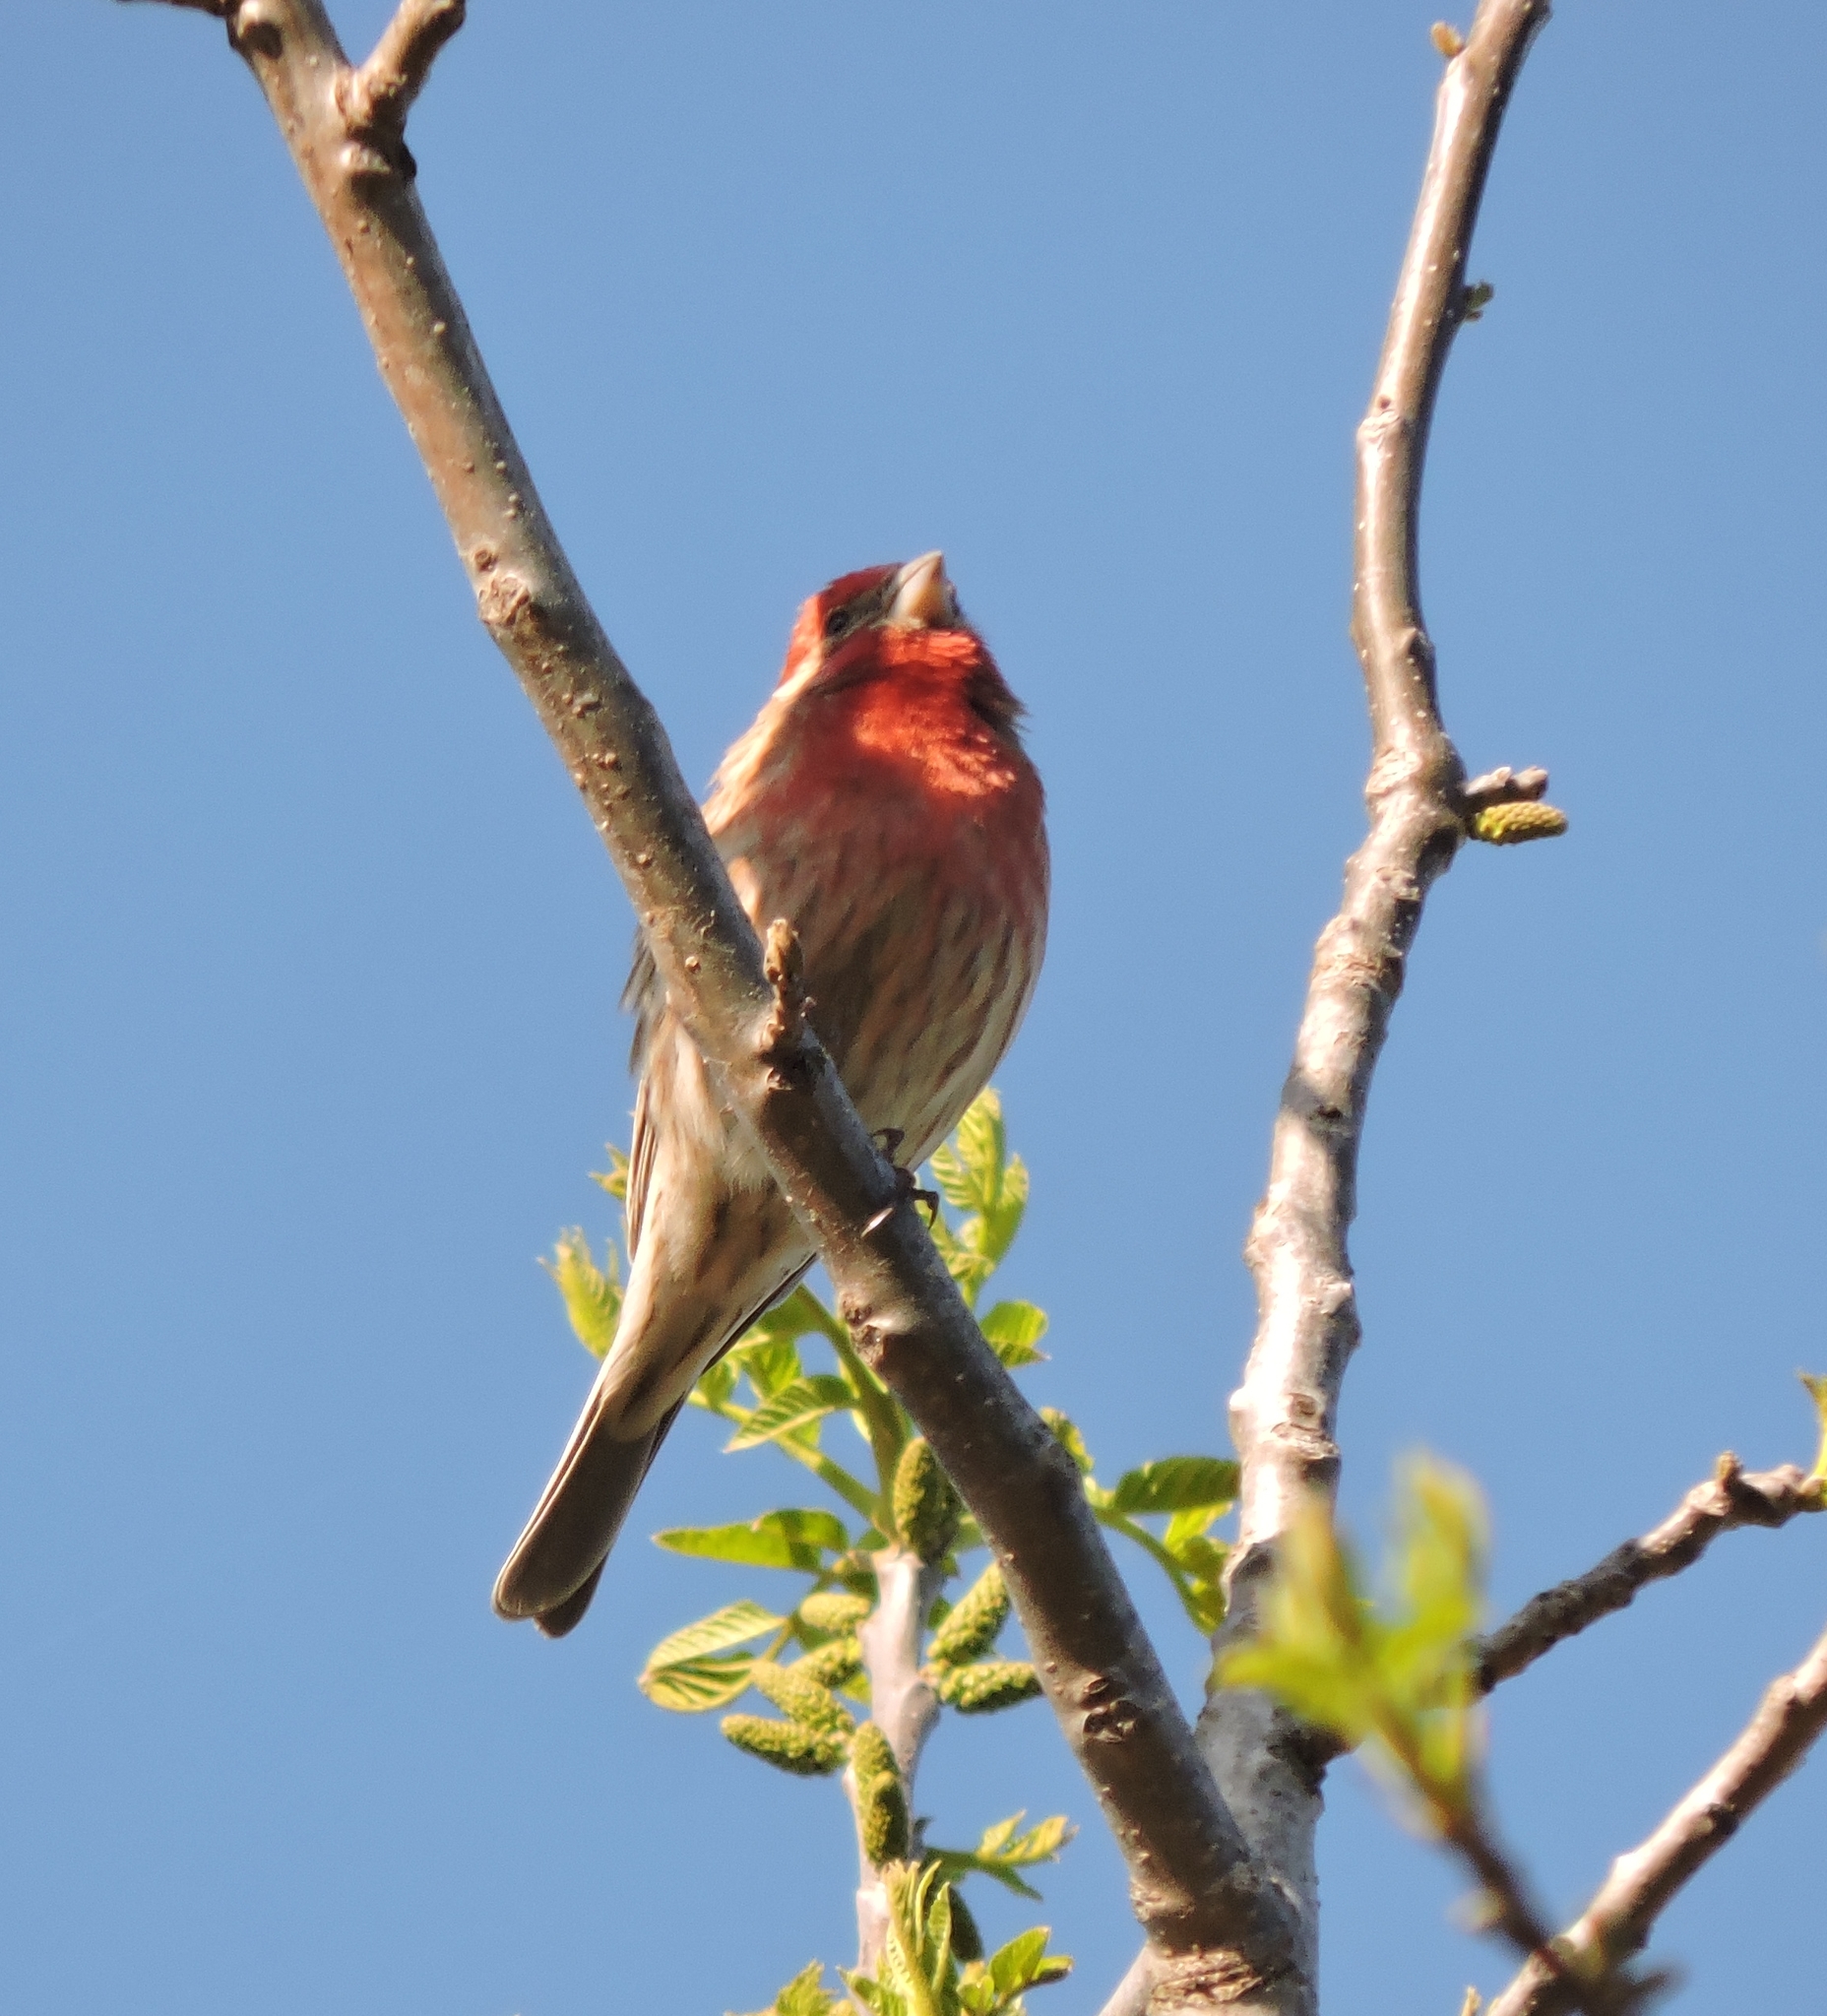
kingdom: Animalia
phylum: Chordata
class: Aves
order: Passeriformes
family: Fringillidae
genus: Haemorhous
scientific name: Haemorhous mexicanus
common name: House finch
